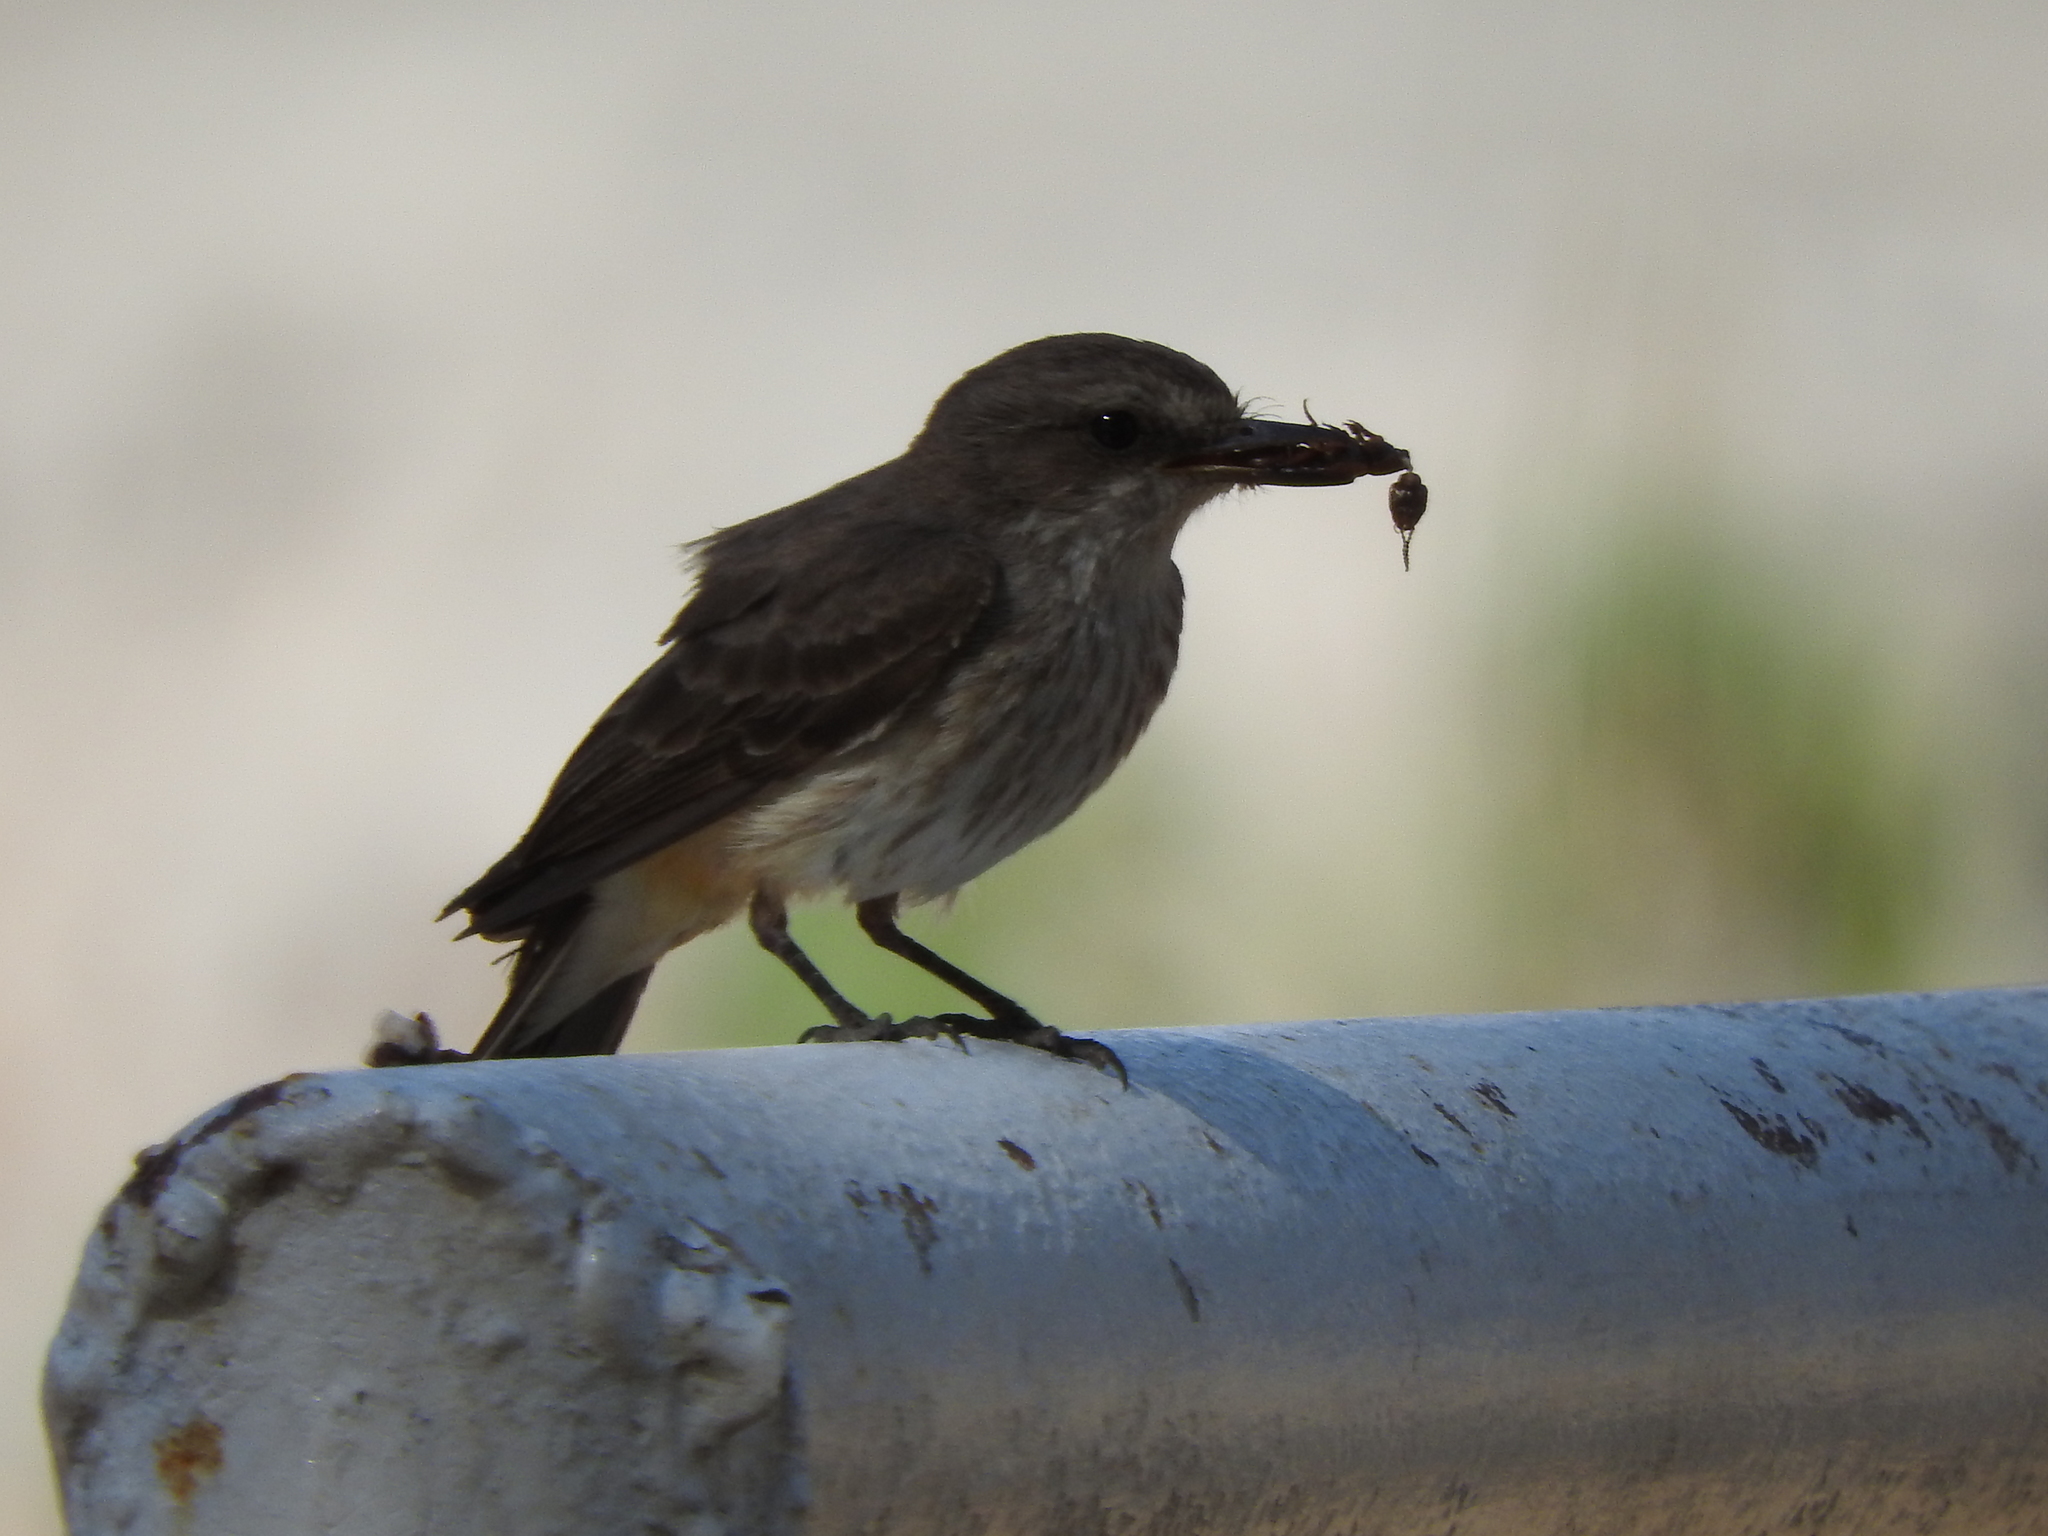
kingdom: Animalia
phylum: Chordata
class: Aves
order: Passeriformes
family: Tyrannidae
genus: Pyrocephalus
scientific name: Pyrocephalus rubinus
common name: Vermilion flycatcher
